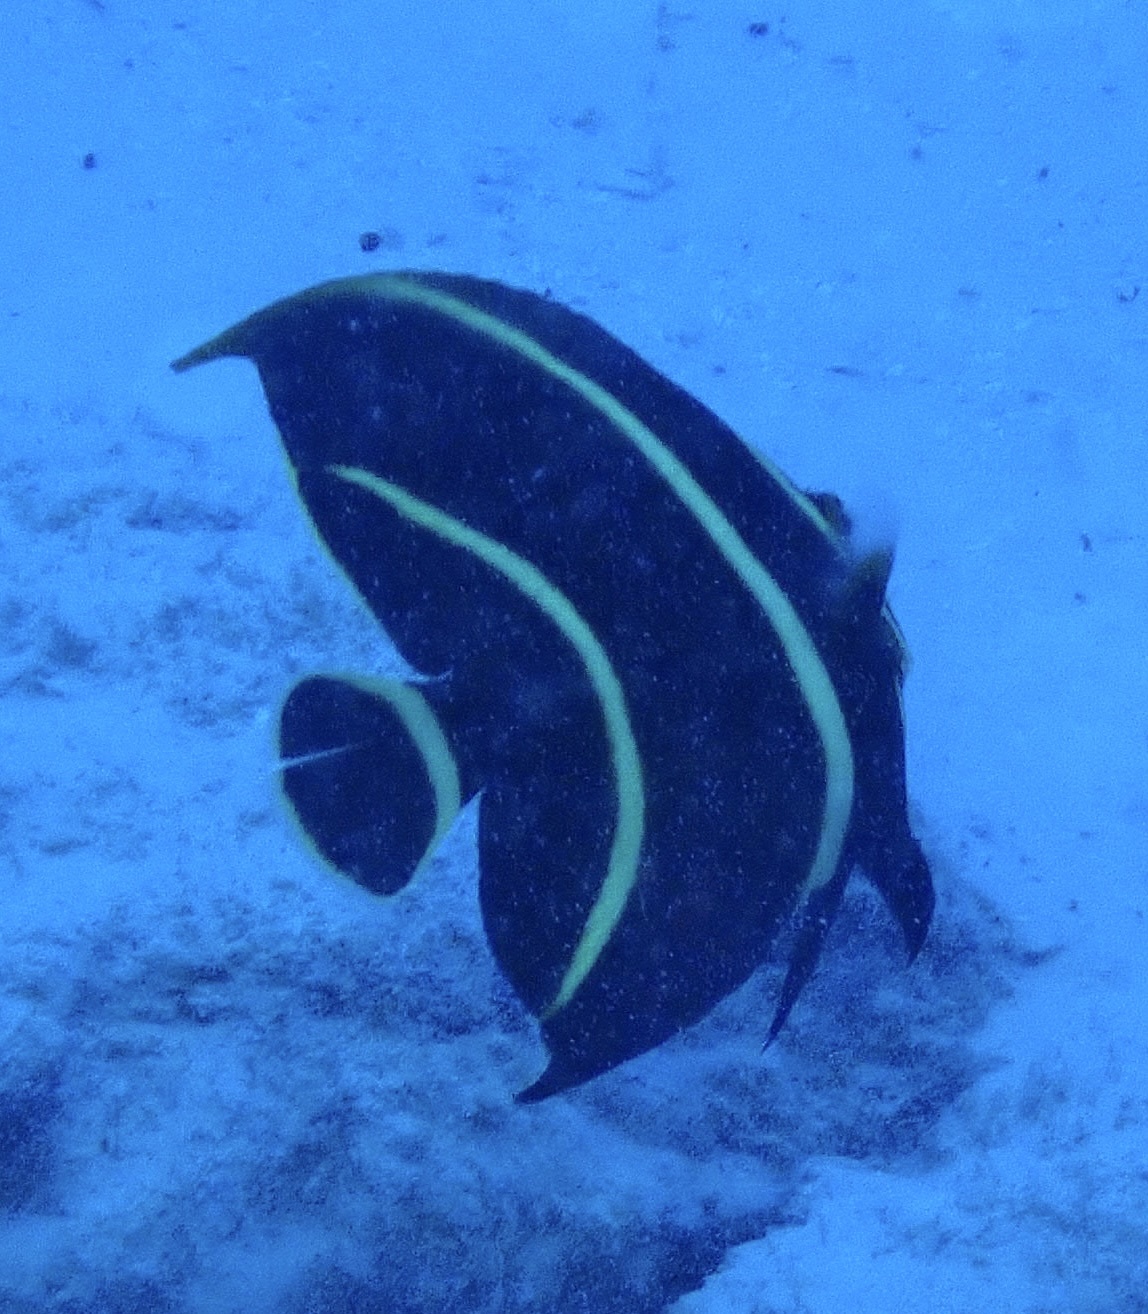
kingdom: Animalia
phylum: Chordata
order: Perciformes
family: Pomacanthidae
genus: Pomacanthus
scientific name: Pomacanthus paru
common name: French angelfish
